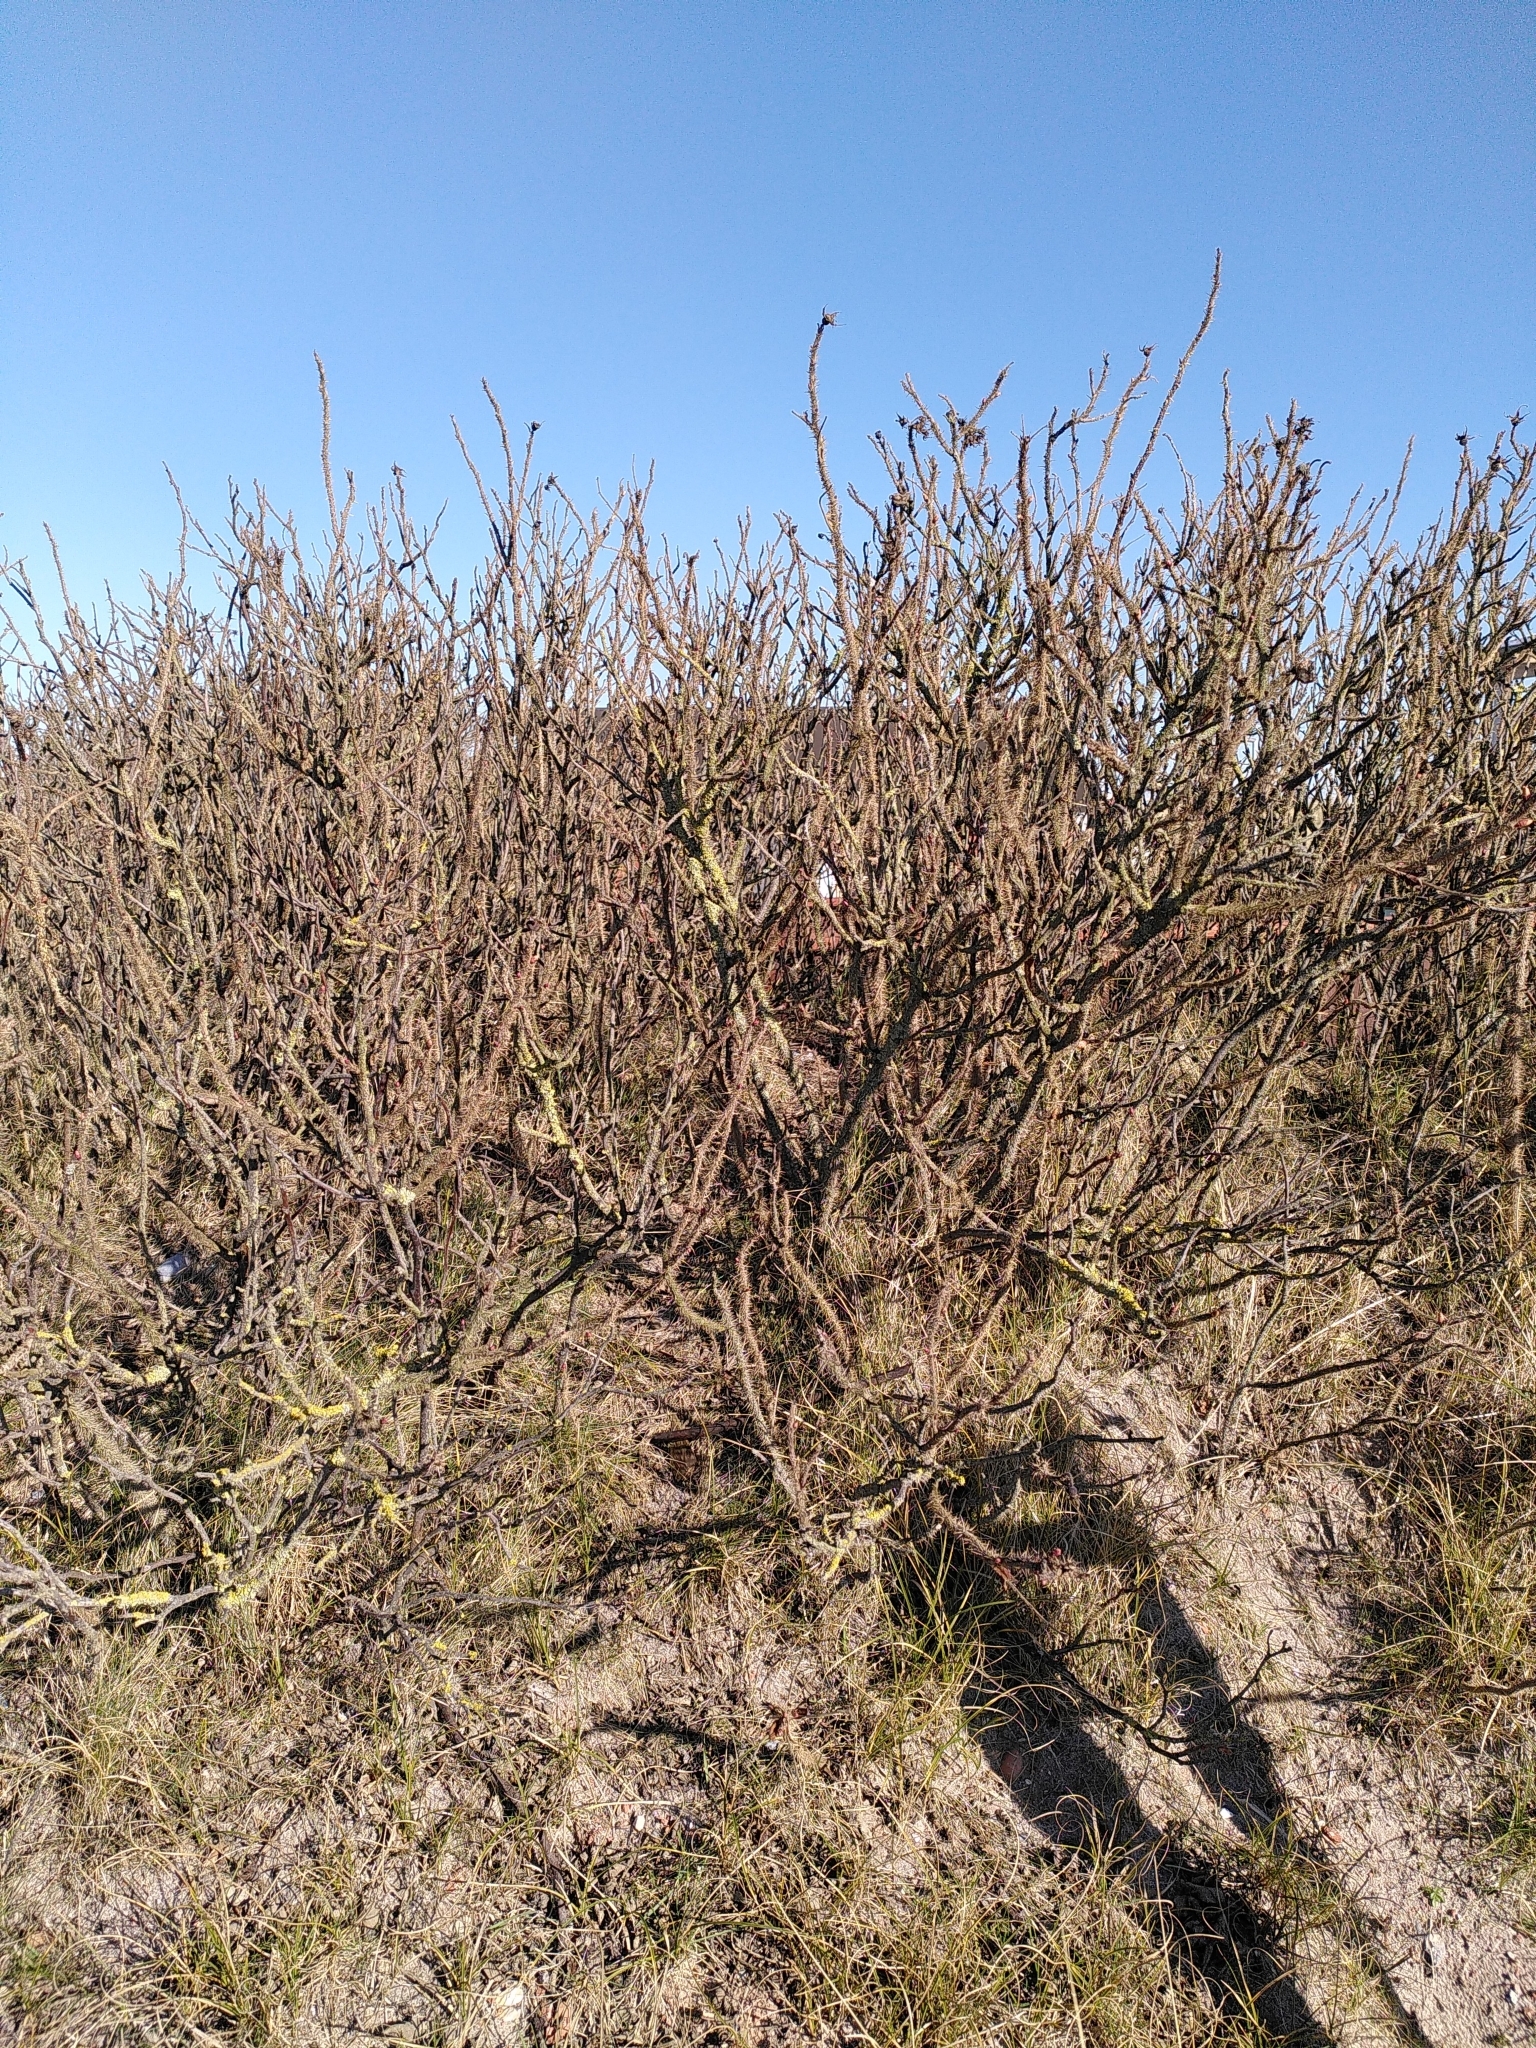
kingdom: Plantae
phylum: Tracheophyta
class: Magnoliopsida
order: Rosales
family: Rosaceae
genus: Rosa
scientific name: Rosa rugosa
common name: Japanese rose
